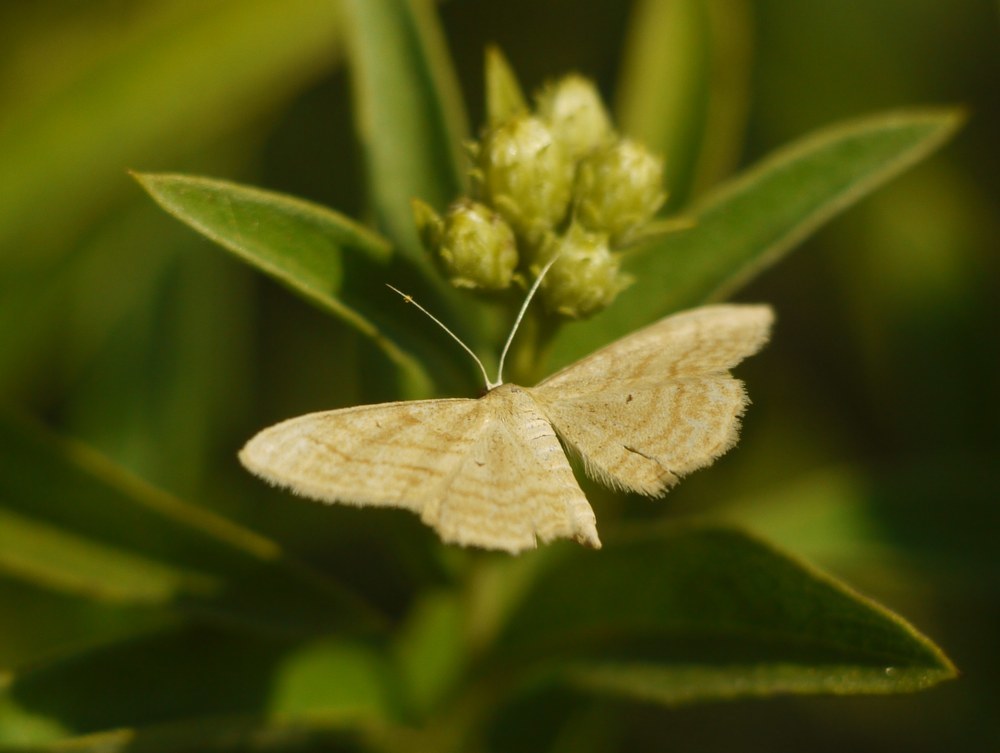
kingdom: Animalia
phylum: Arthropoda
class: Insecta
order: Lepidoptera
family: Geometridae
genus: Idaea
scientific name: Idaea rufaria
